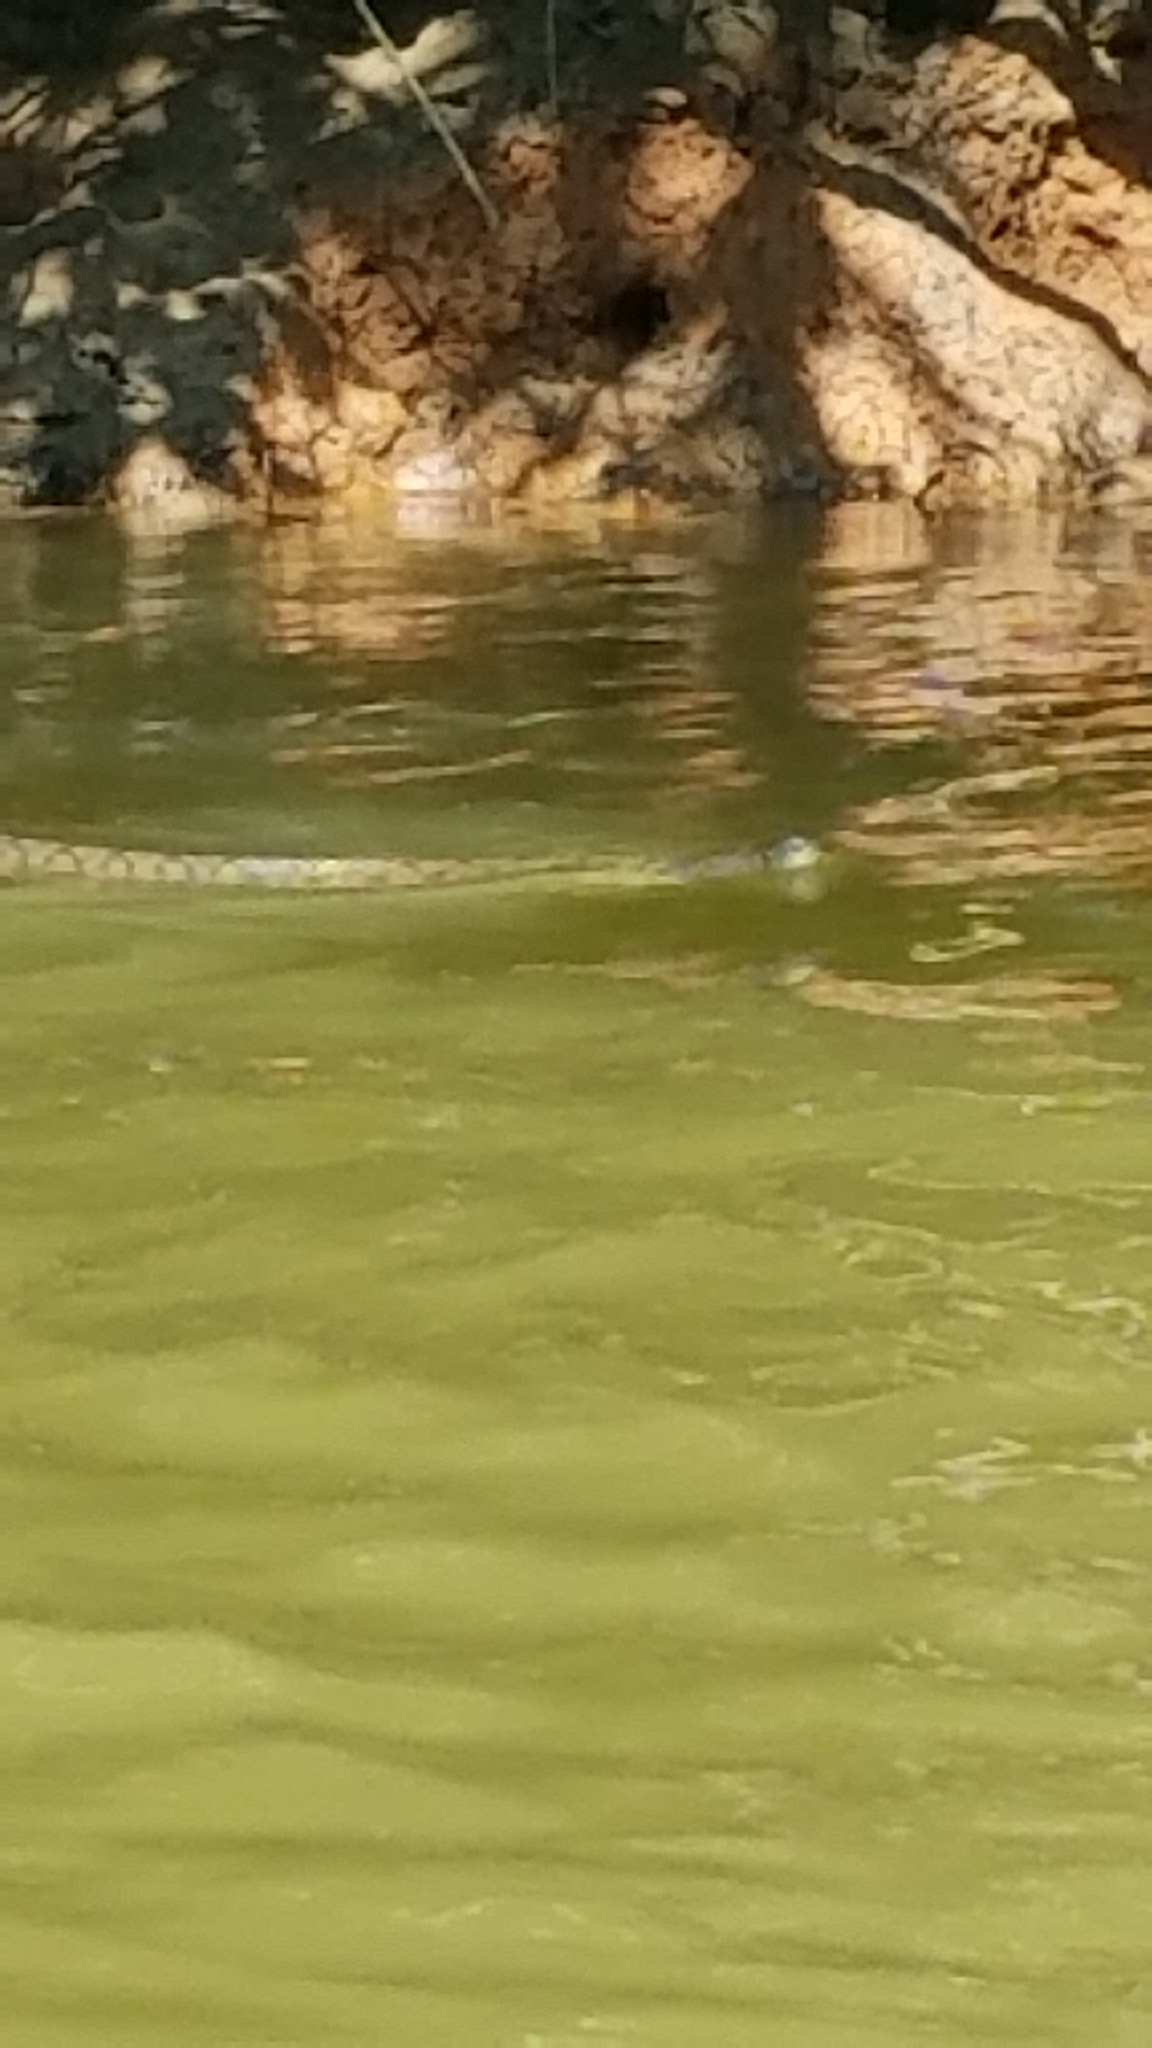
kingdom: Animalia
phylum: Chordata
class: Squamata
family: Colubridae
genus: Nerodia
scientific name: Nerodia rhombifer
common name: Diamondback water snake
